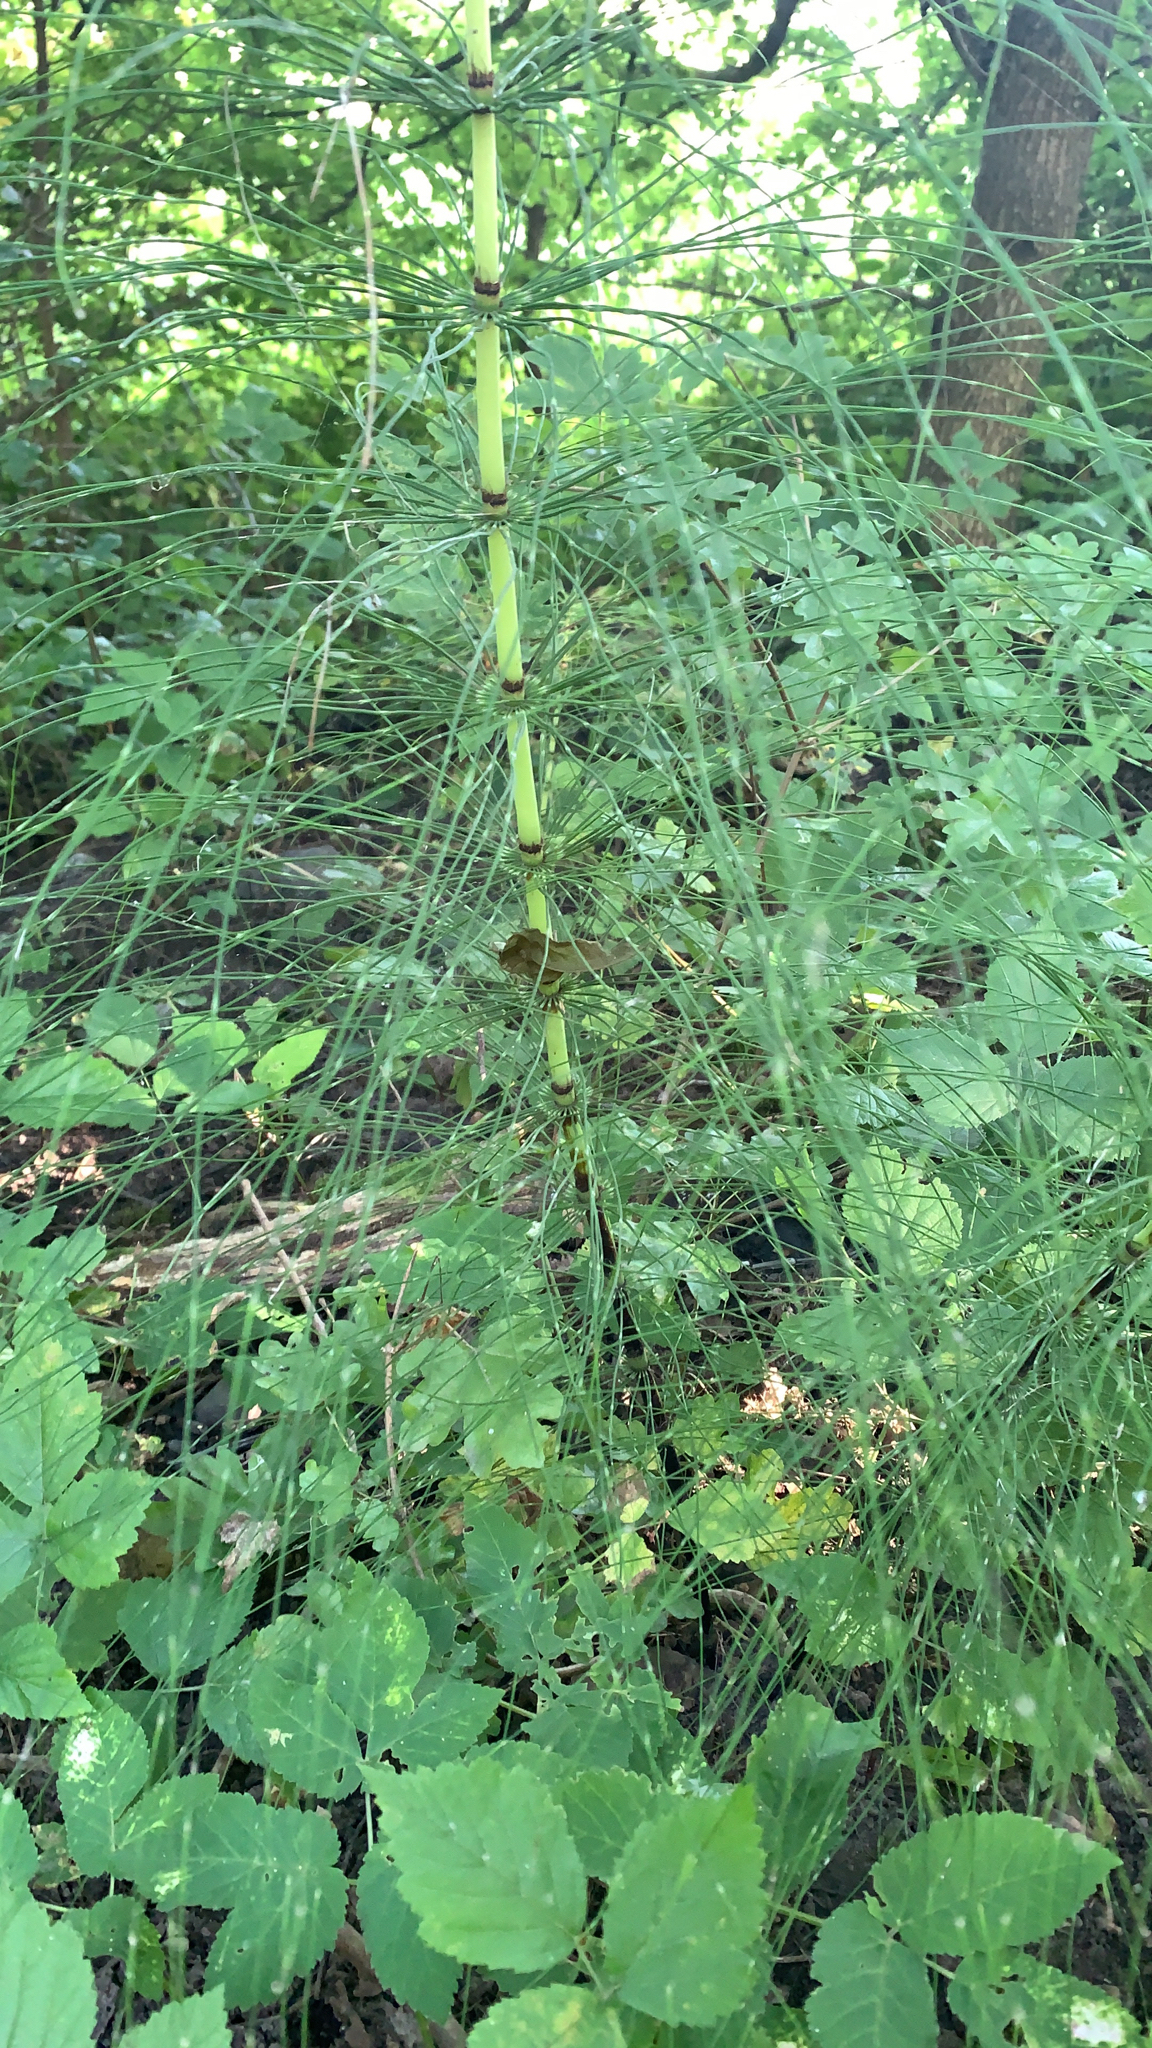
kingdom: Plantae
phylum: Tracheophyta
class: Polypodiopsida
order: Equisetales
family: Equisetaceae
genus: Equisetum
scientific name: Equisetum telmateia
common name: Great horsetail
